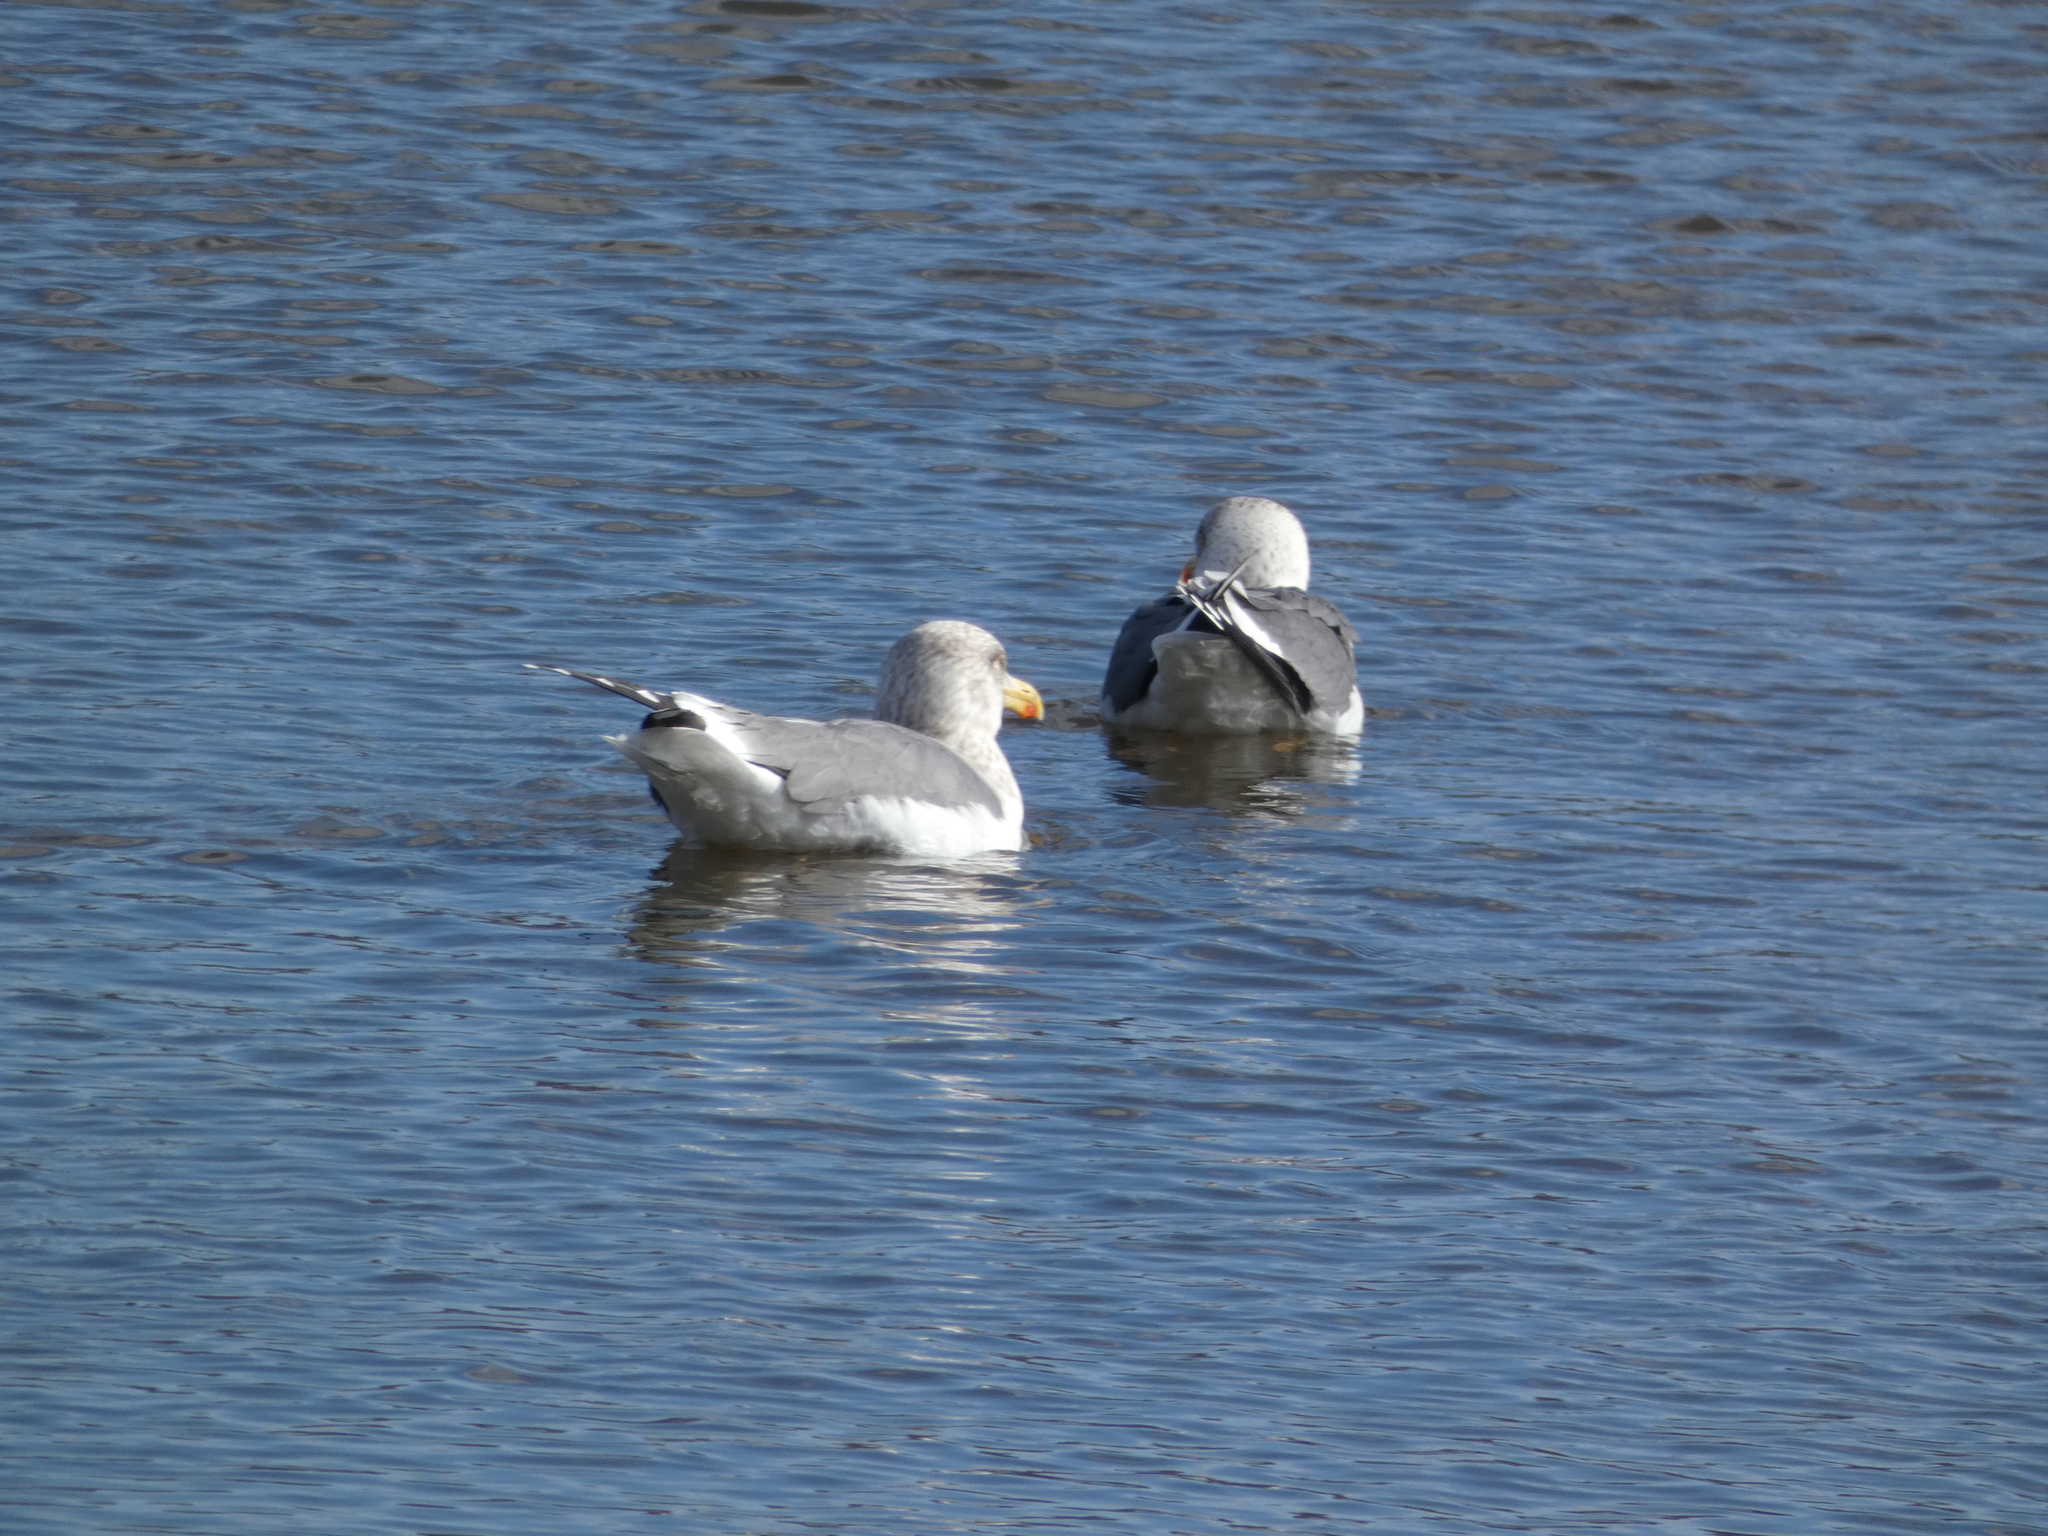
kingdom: Animalia
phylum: Chordata
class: Aves
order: Charadriiformes
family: Laridae
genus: Larus
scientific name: Larus argentatus
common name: Herring gull
